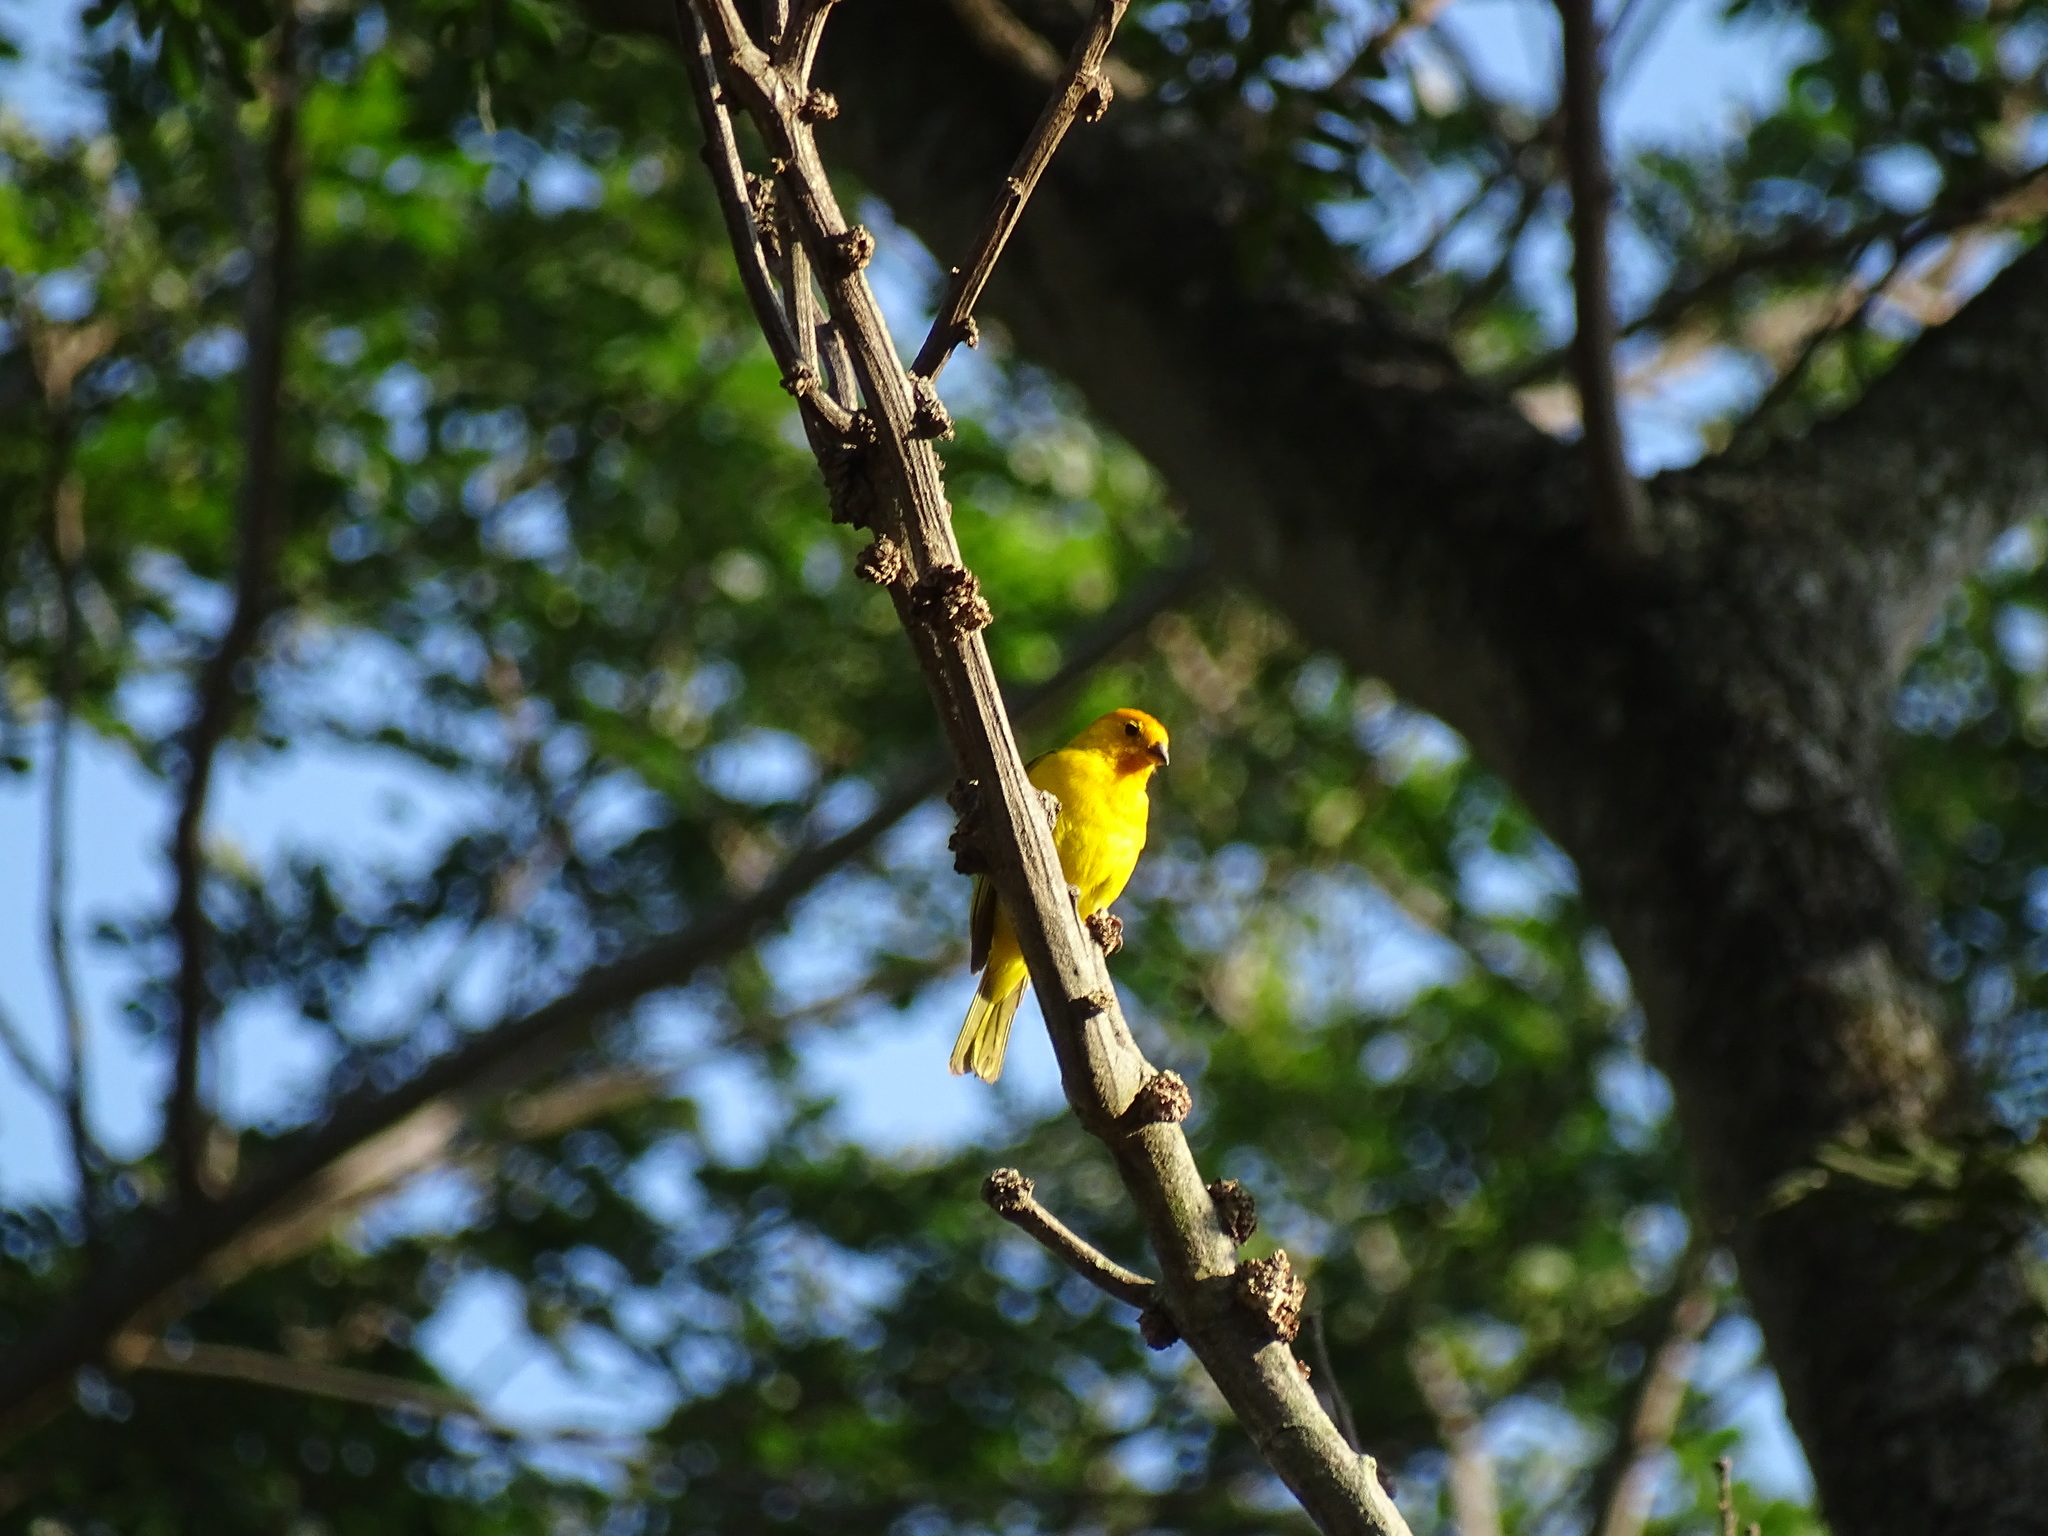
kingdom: Animalia
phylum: Chordata
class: Aves
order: Passeriformes
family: Thraupidae
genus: Sicalis
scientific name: Sicalis flaveola
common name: Saffron finch
